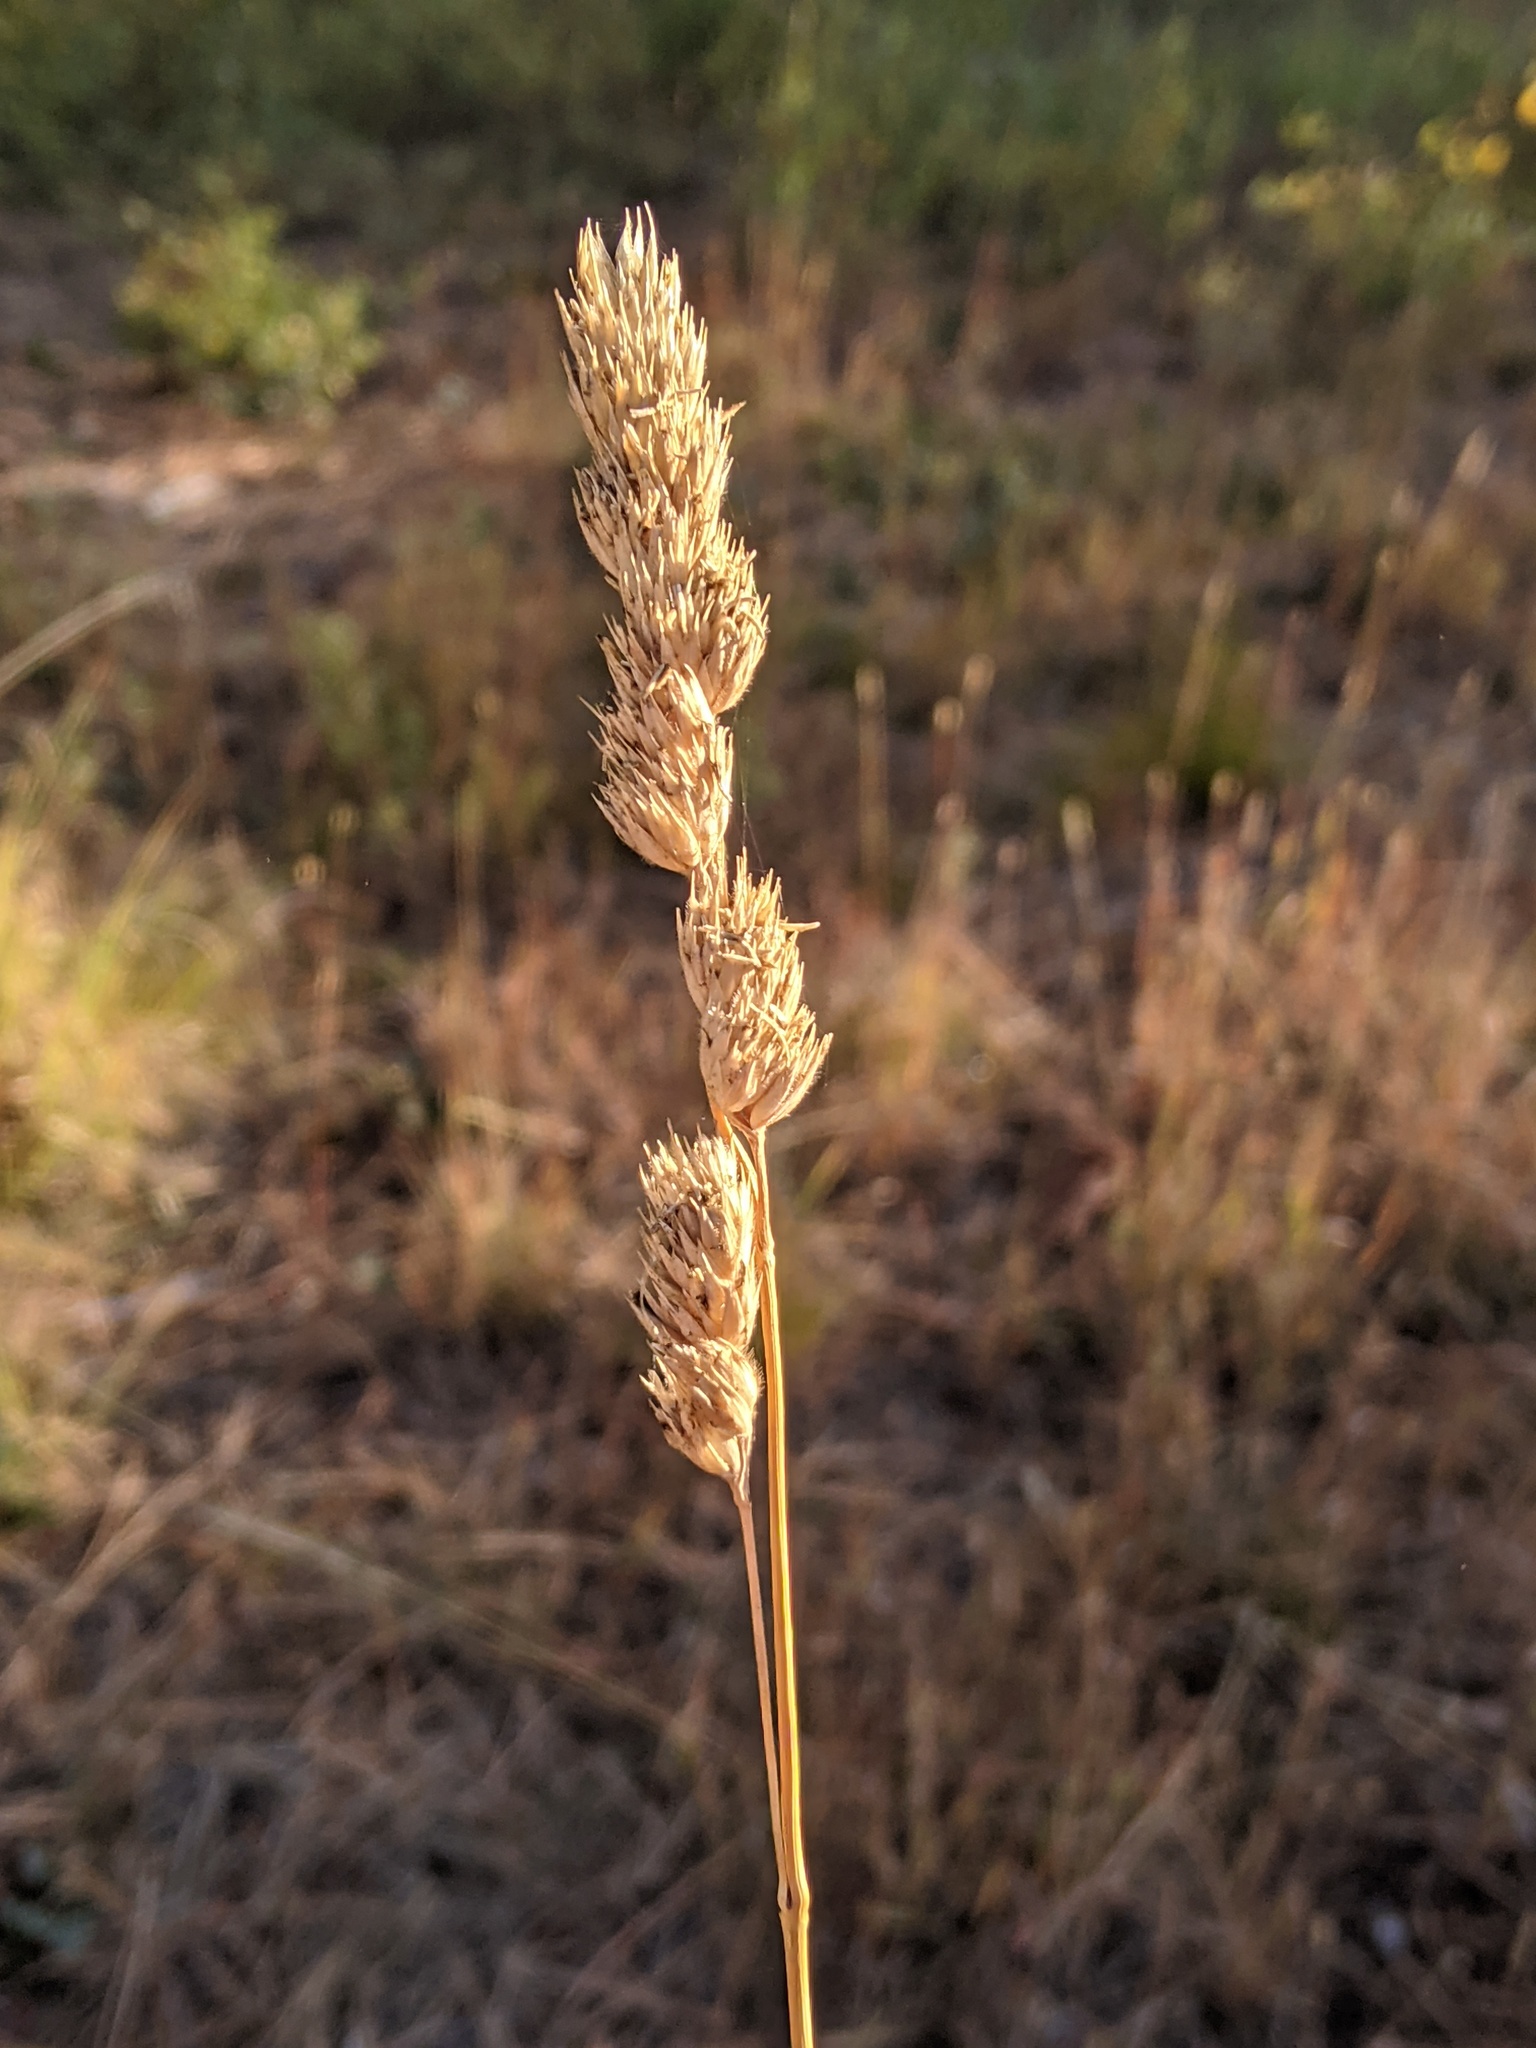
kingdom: Plantae
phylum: Tracheophyta
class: Liliopsida
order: Poales
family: Poaceae
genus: Dactylis
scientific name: Dactylis glomerata
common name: Orchardgrass
